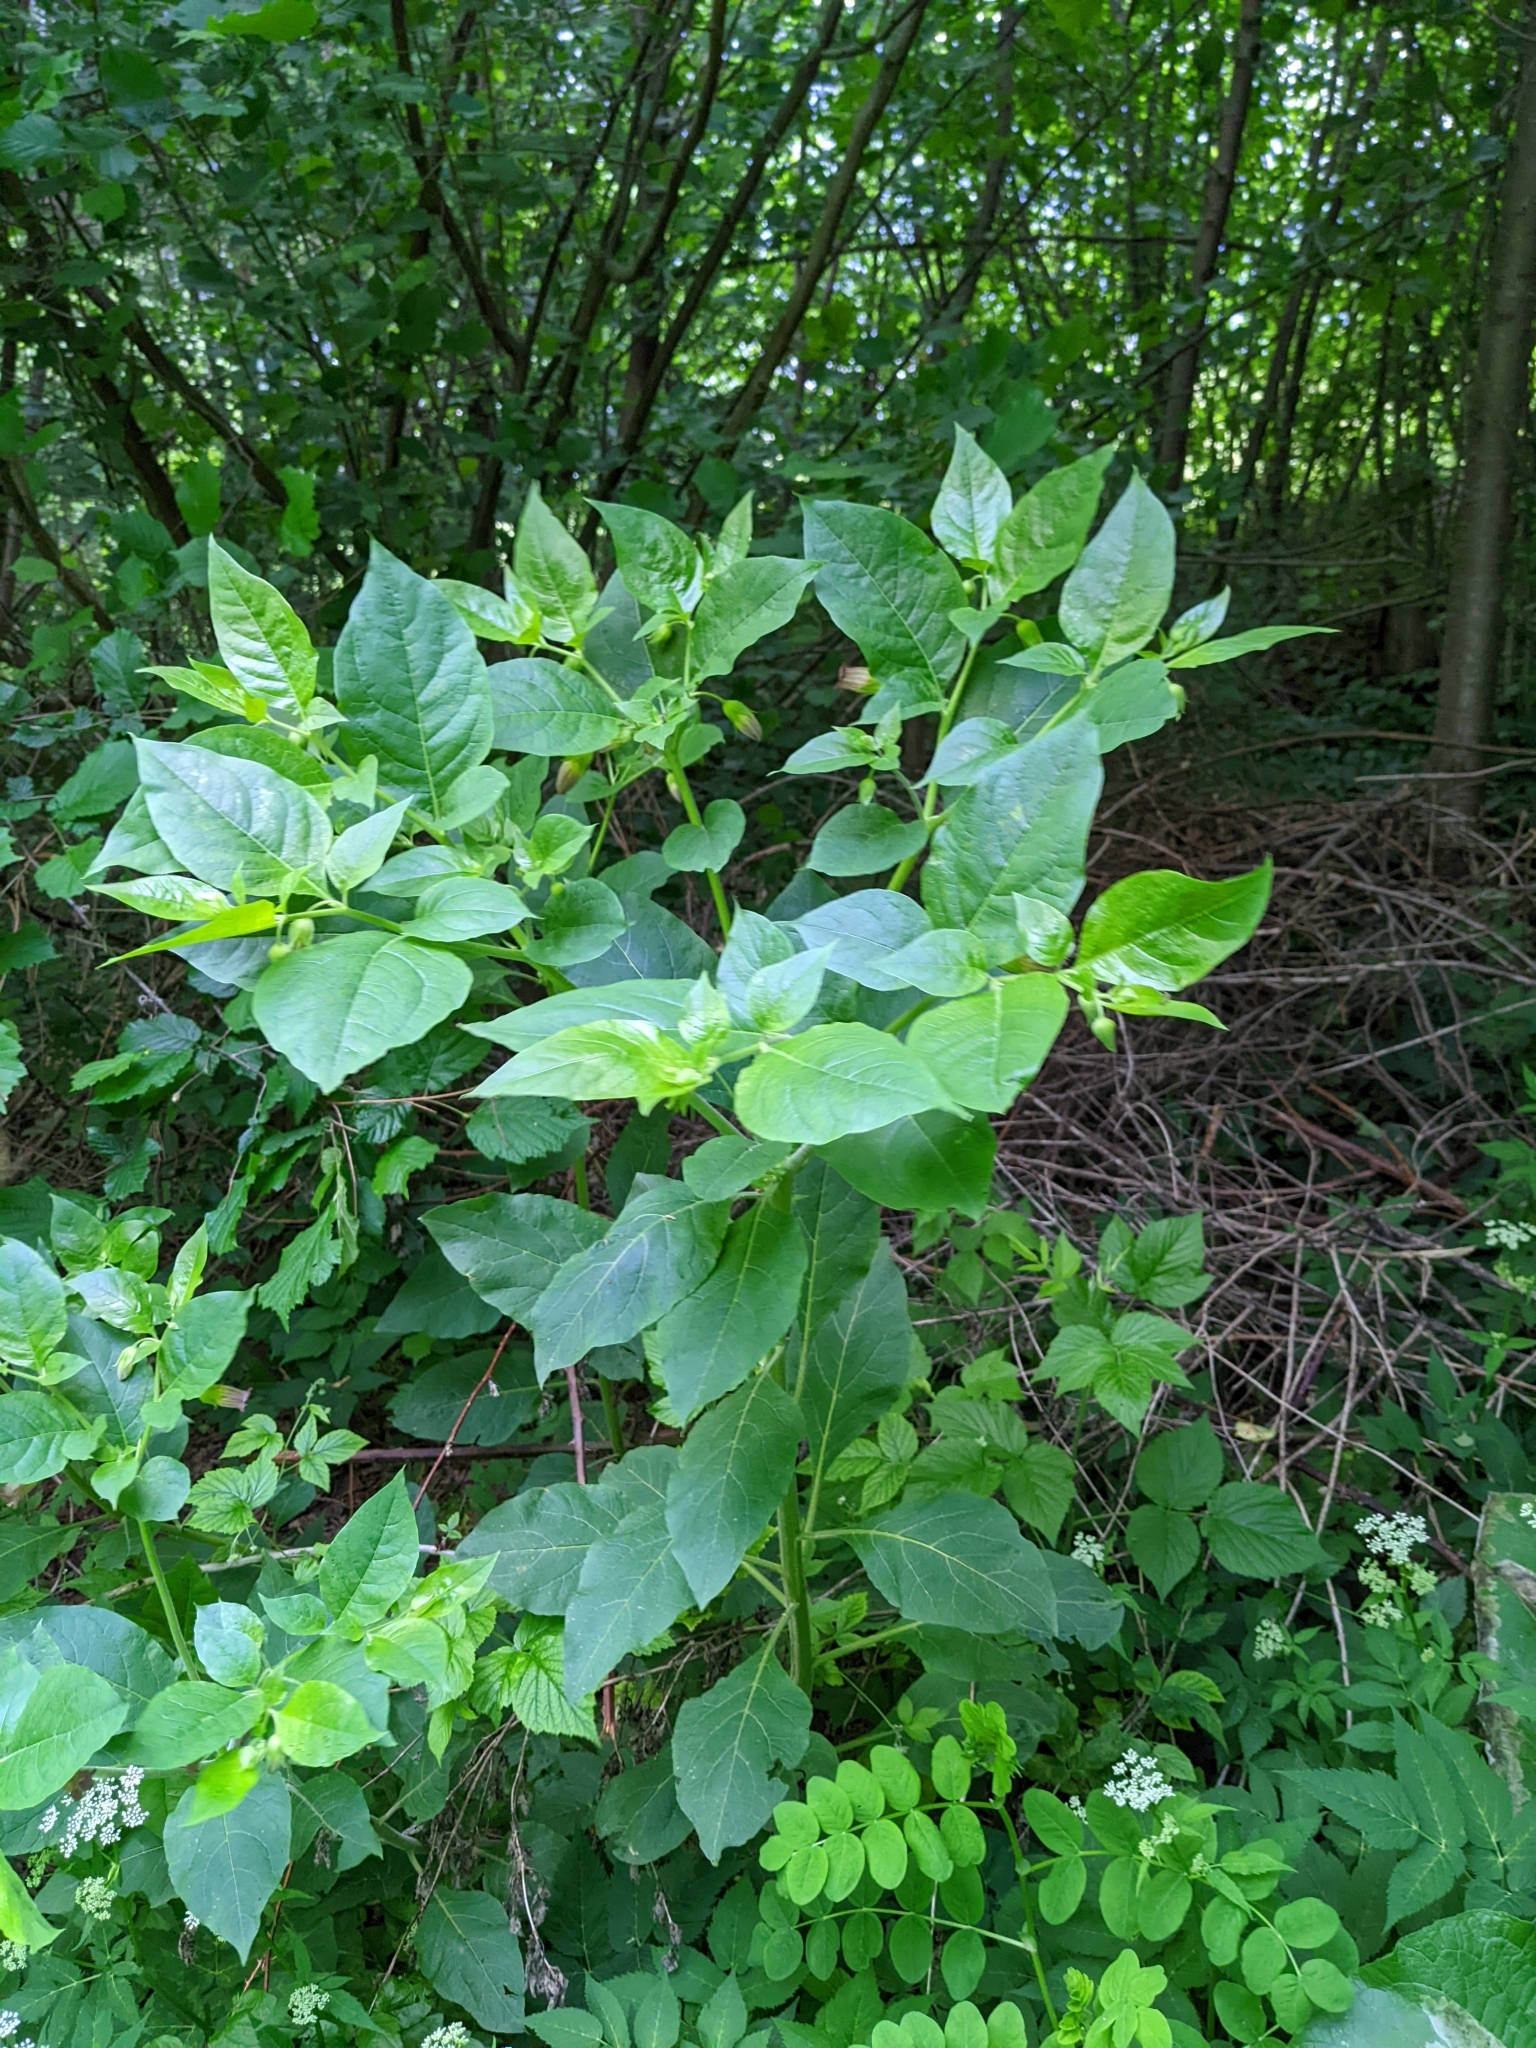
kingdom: Plantae
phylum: Tracheophyta
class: Magnoliopsida
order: Solanales
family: Solanaceae
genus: Atropa
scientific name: Atropa belladonna
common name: Deadly nightshade
